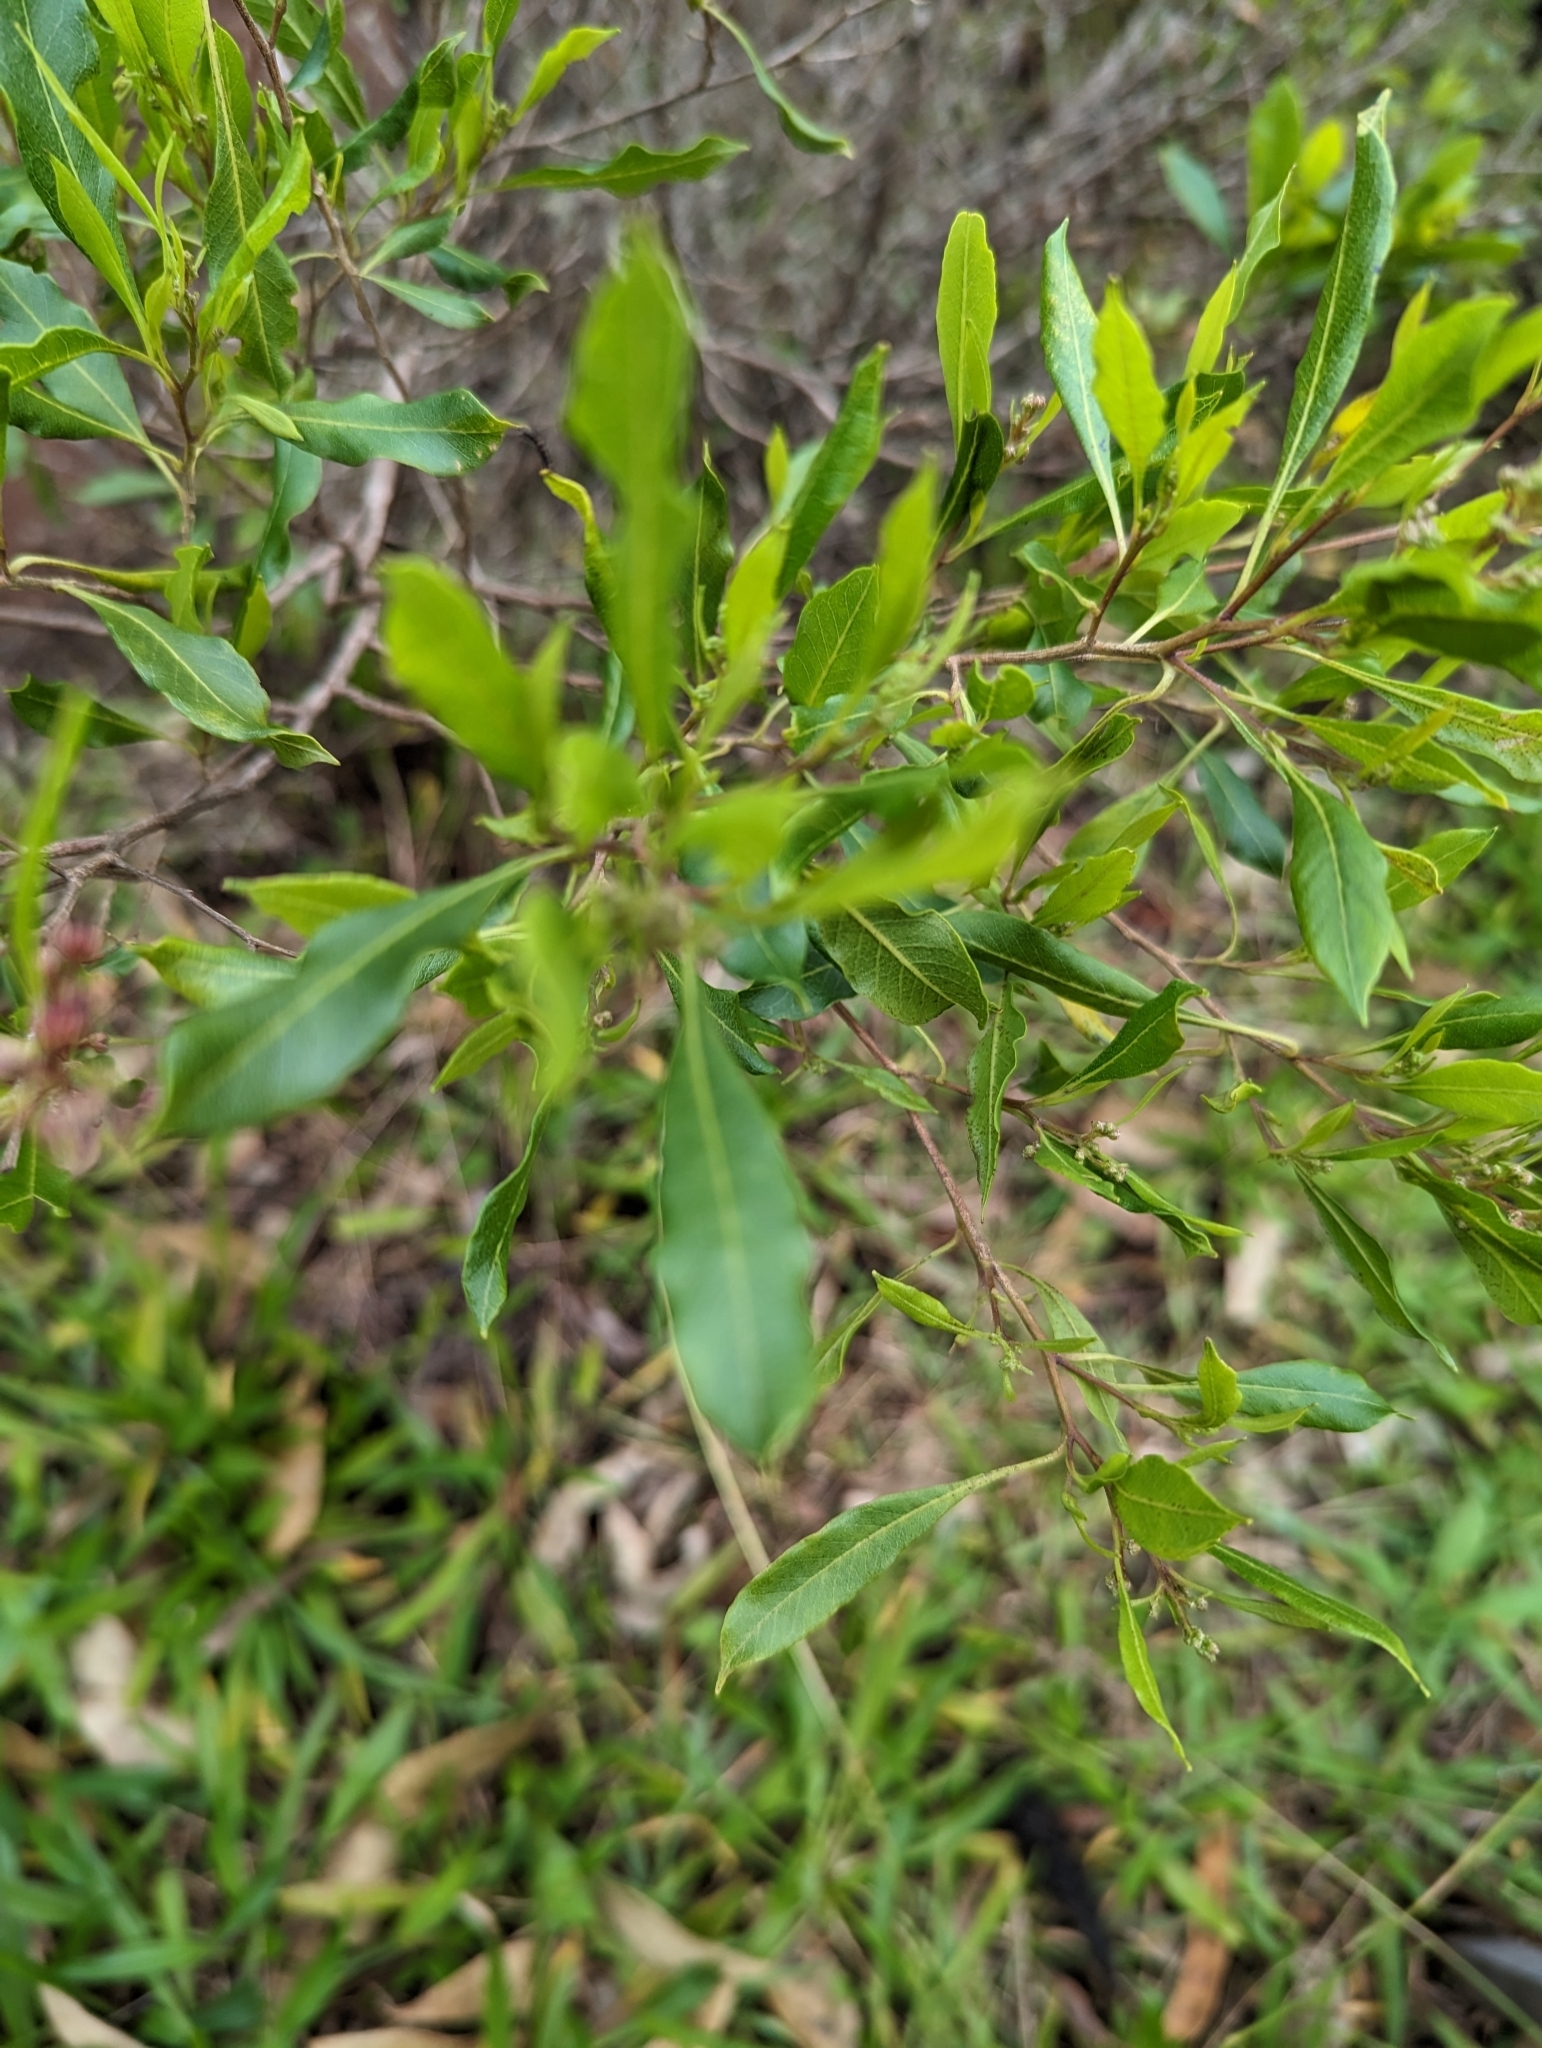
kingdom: Plantae
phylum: Tracheophyta
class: Magnoliopsida
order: Sapindales
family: Sapindaceae
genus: Dodonaea
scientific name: Dodonaea viscosa
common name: Hopbush
